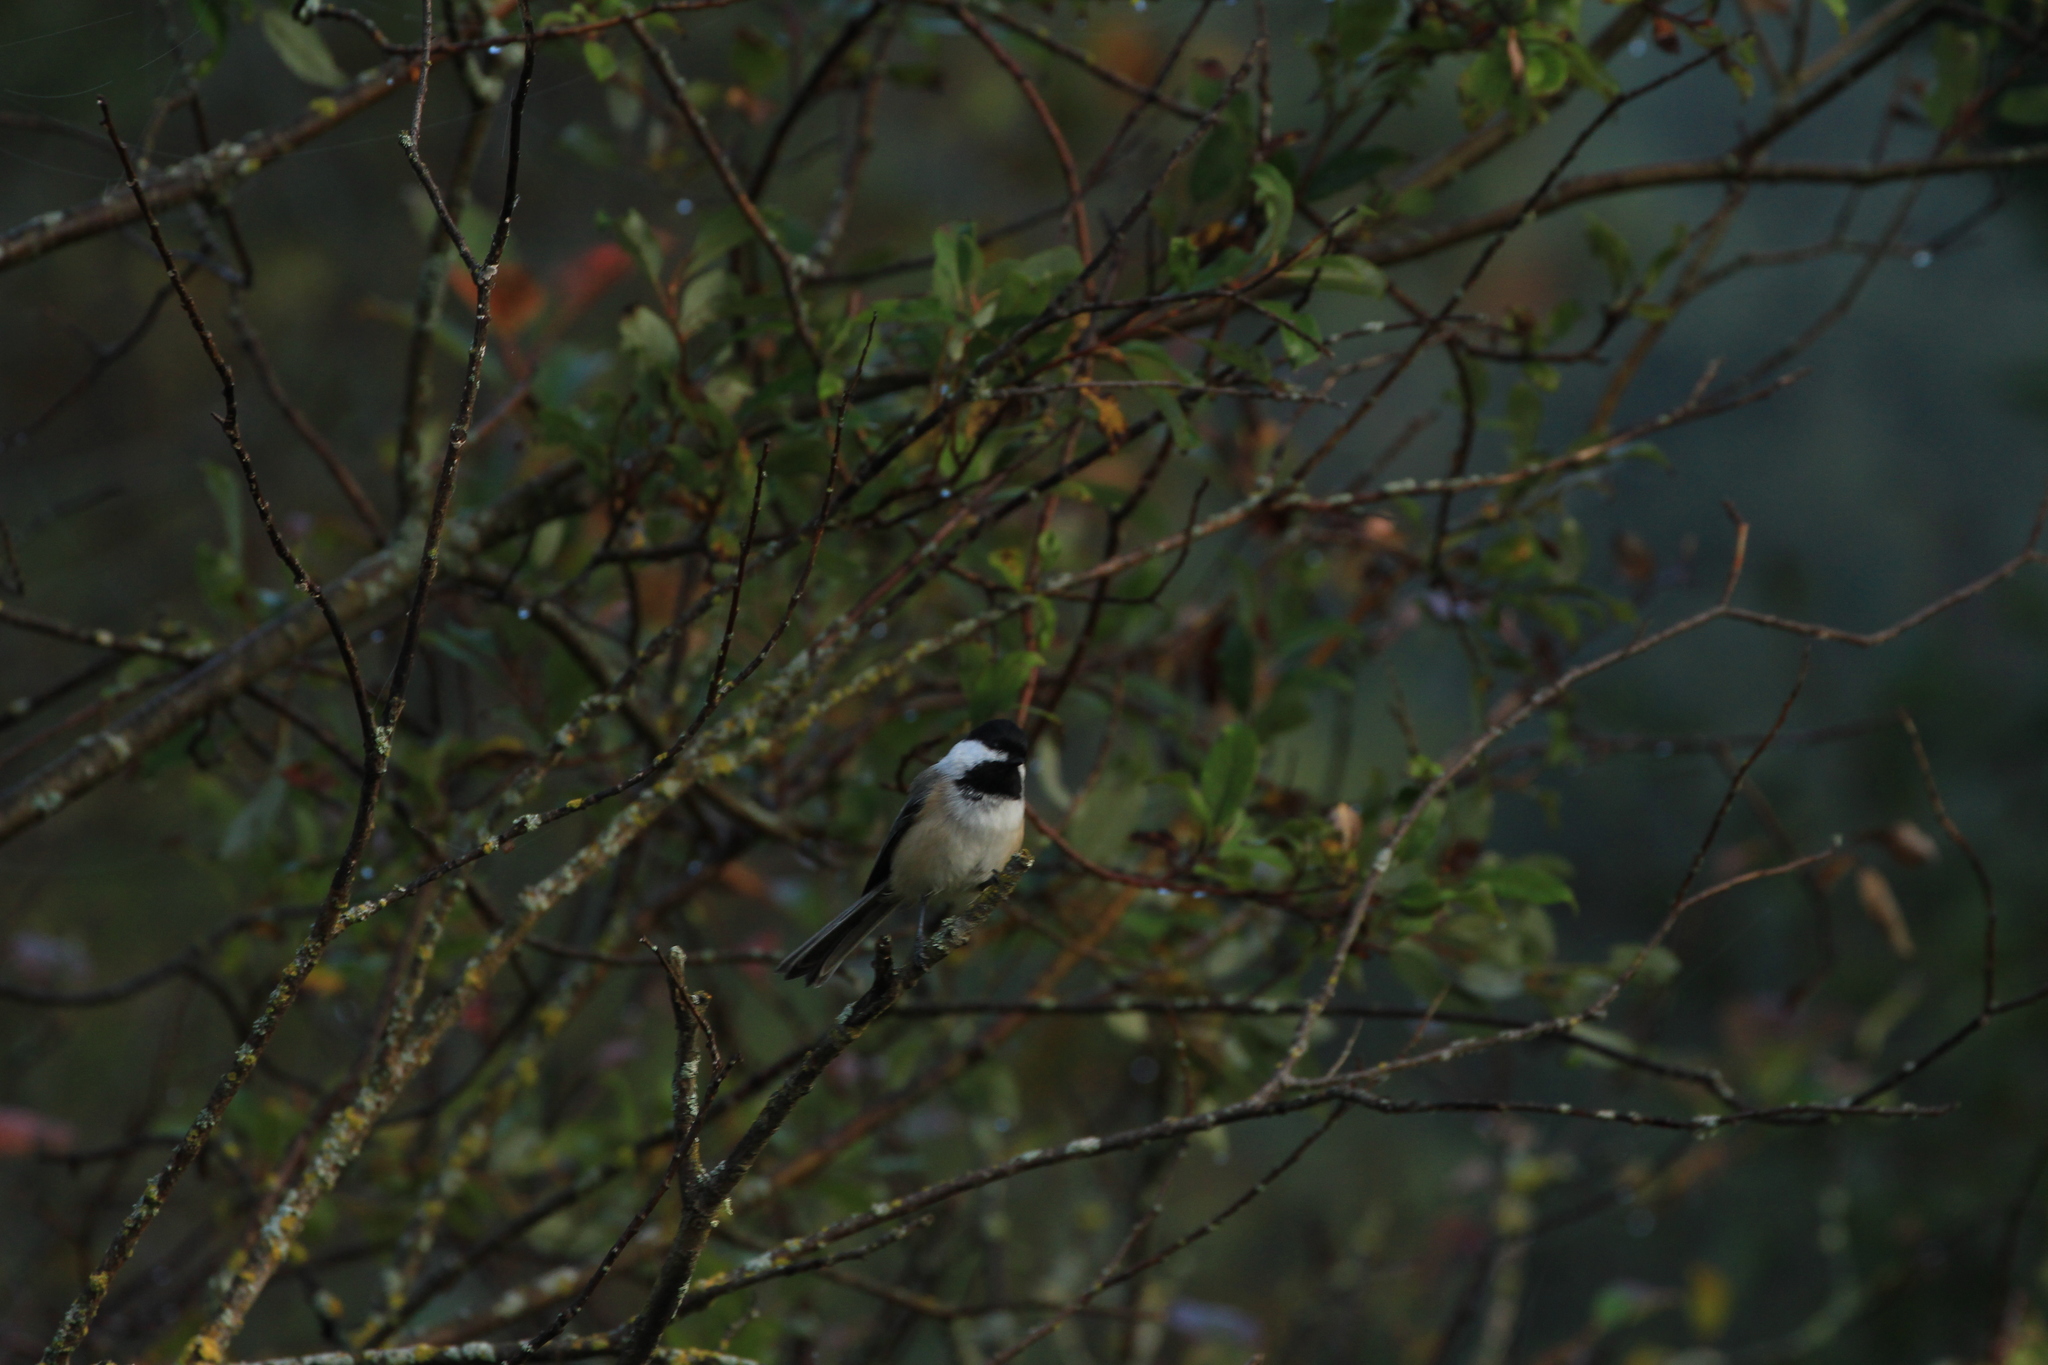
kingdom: Animalia
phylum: Chordata
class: Aves
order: Passeriformes
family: Paridae
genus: Poecile
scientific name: Poecile atricapillus
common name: Black-capped chickadee
